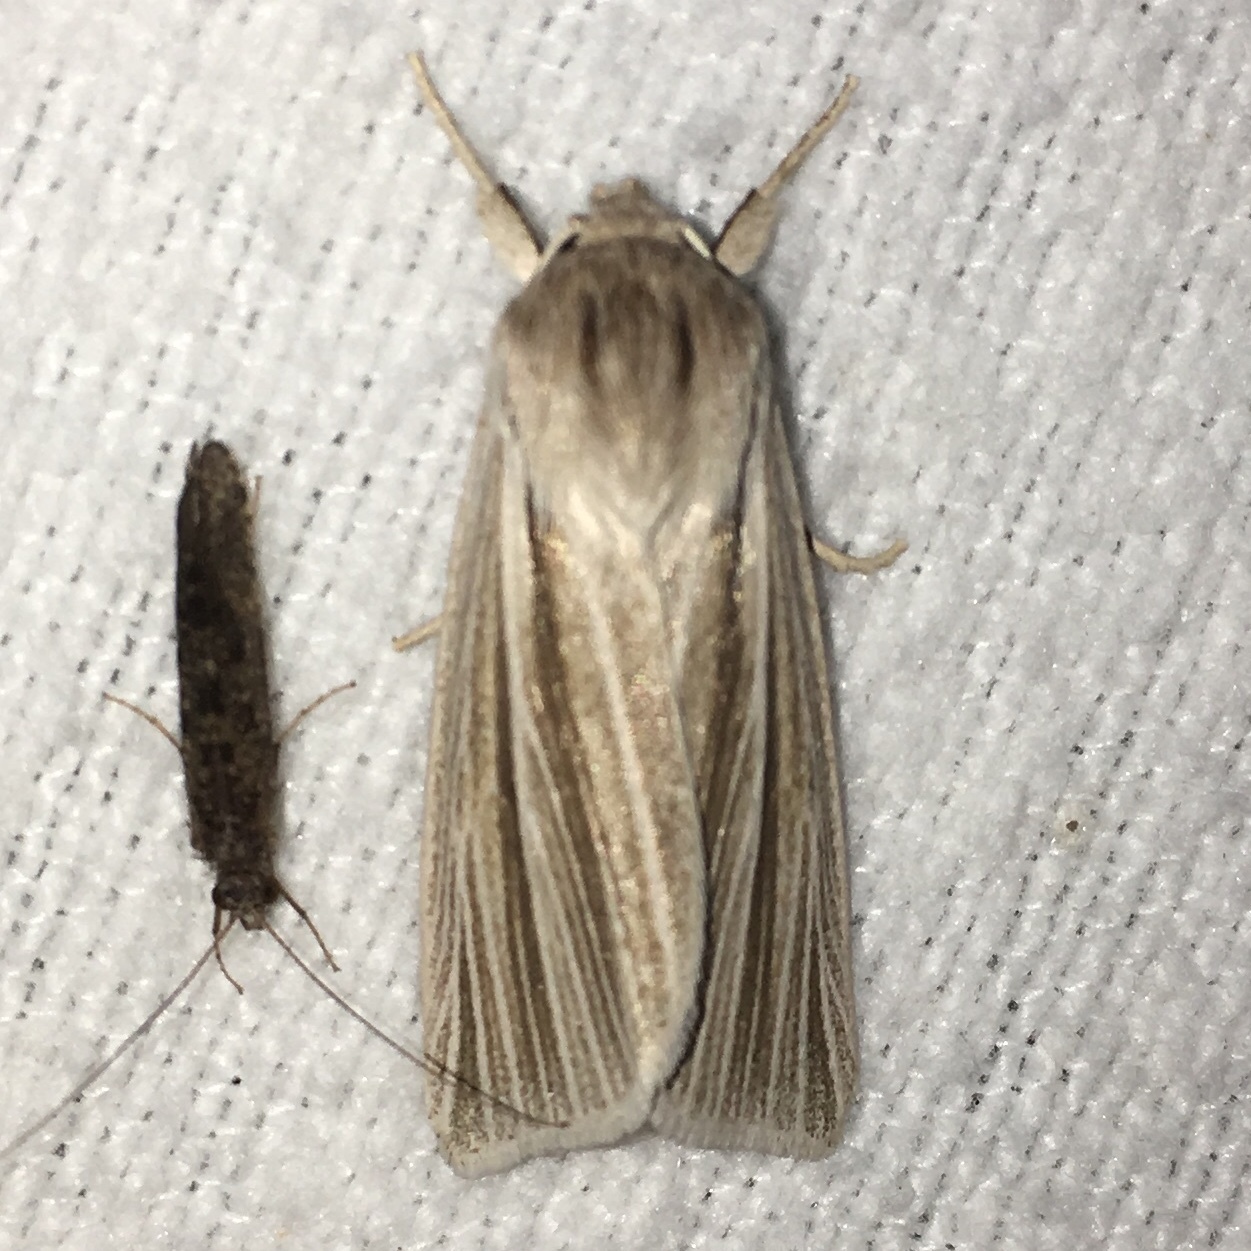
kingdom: Animalia
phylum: Arthropoda
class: Insecta
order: Lepidoptera
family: Noctuidae
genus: Acronicta
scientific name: Acronicta insularis
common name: Henry's marsh moth
